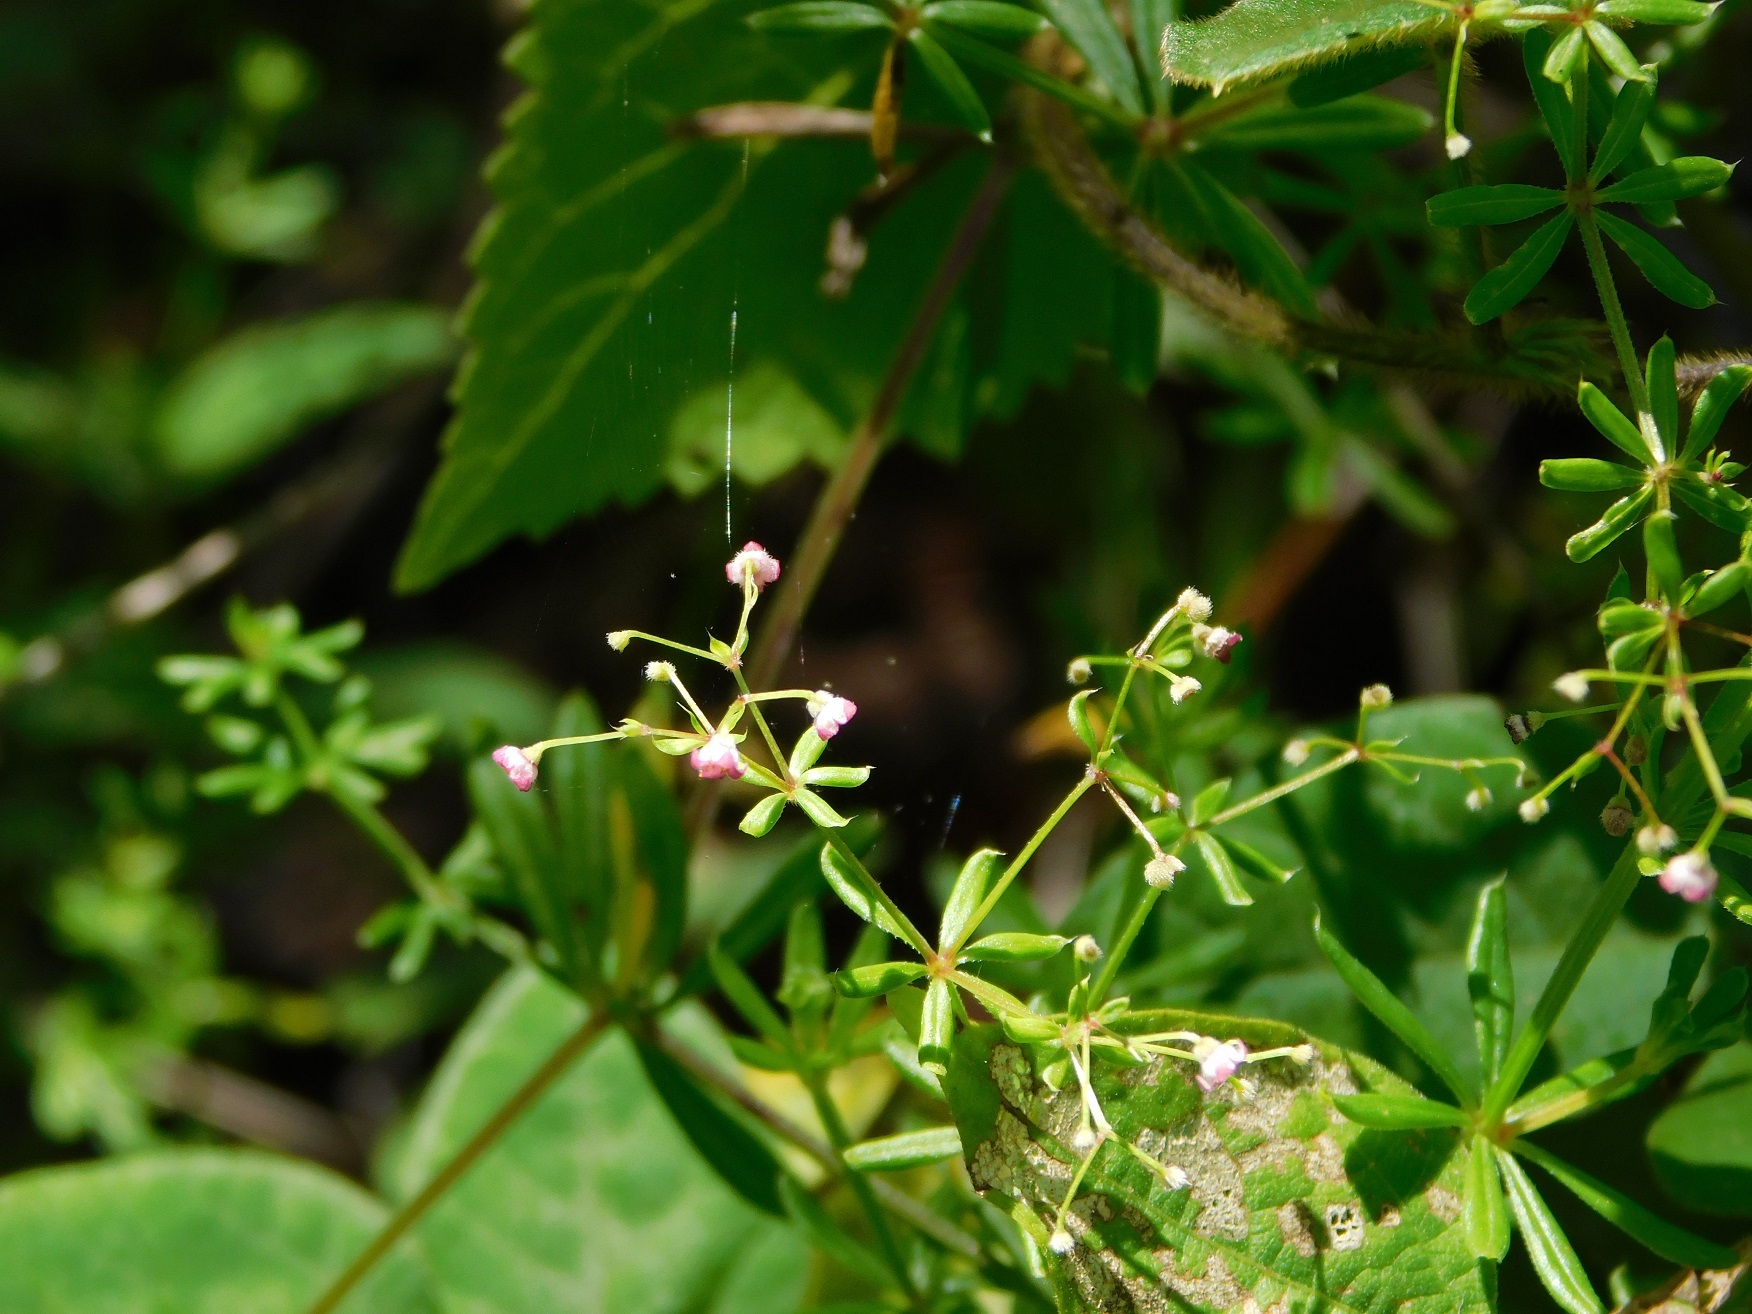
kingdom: Plantae
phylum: Tracheophyta
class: Magnoliopsida
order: Gentianales
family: Rubiaceae
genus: Galium
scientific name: Galium aschenbornii
